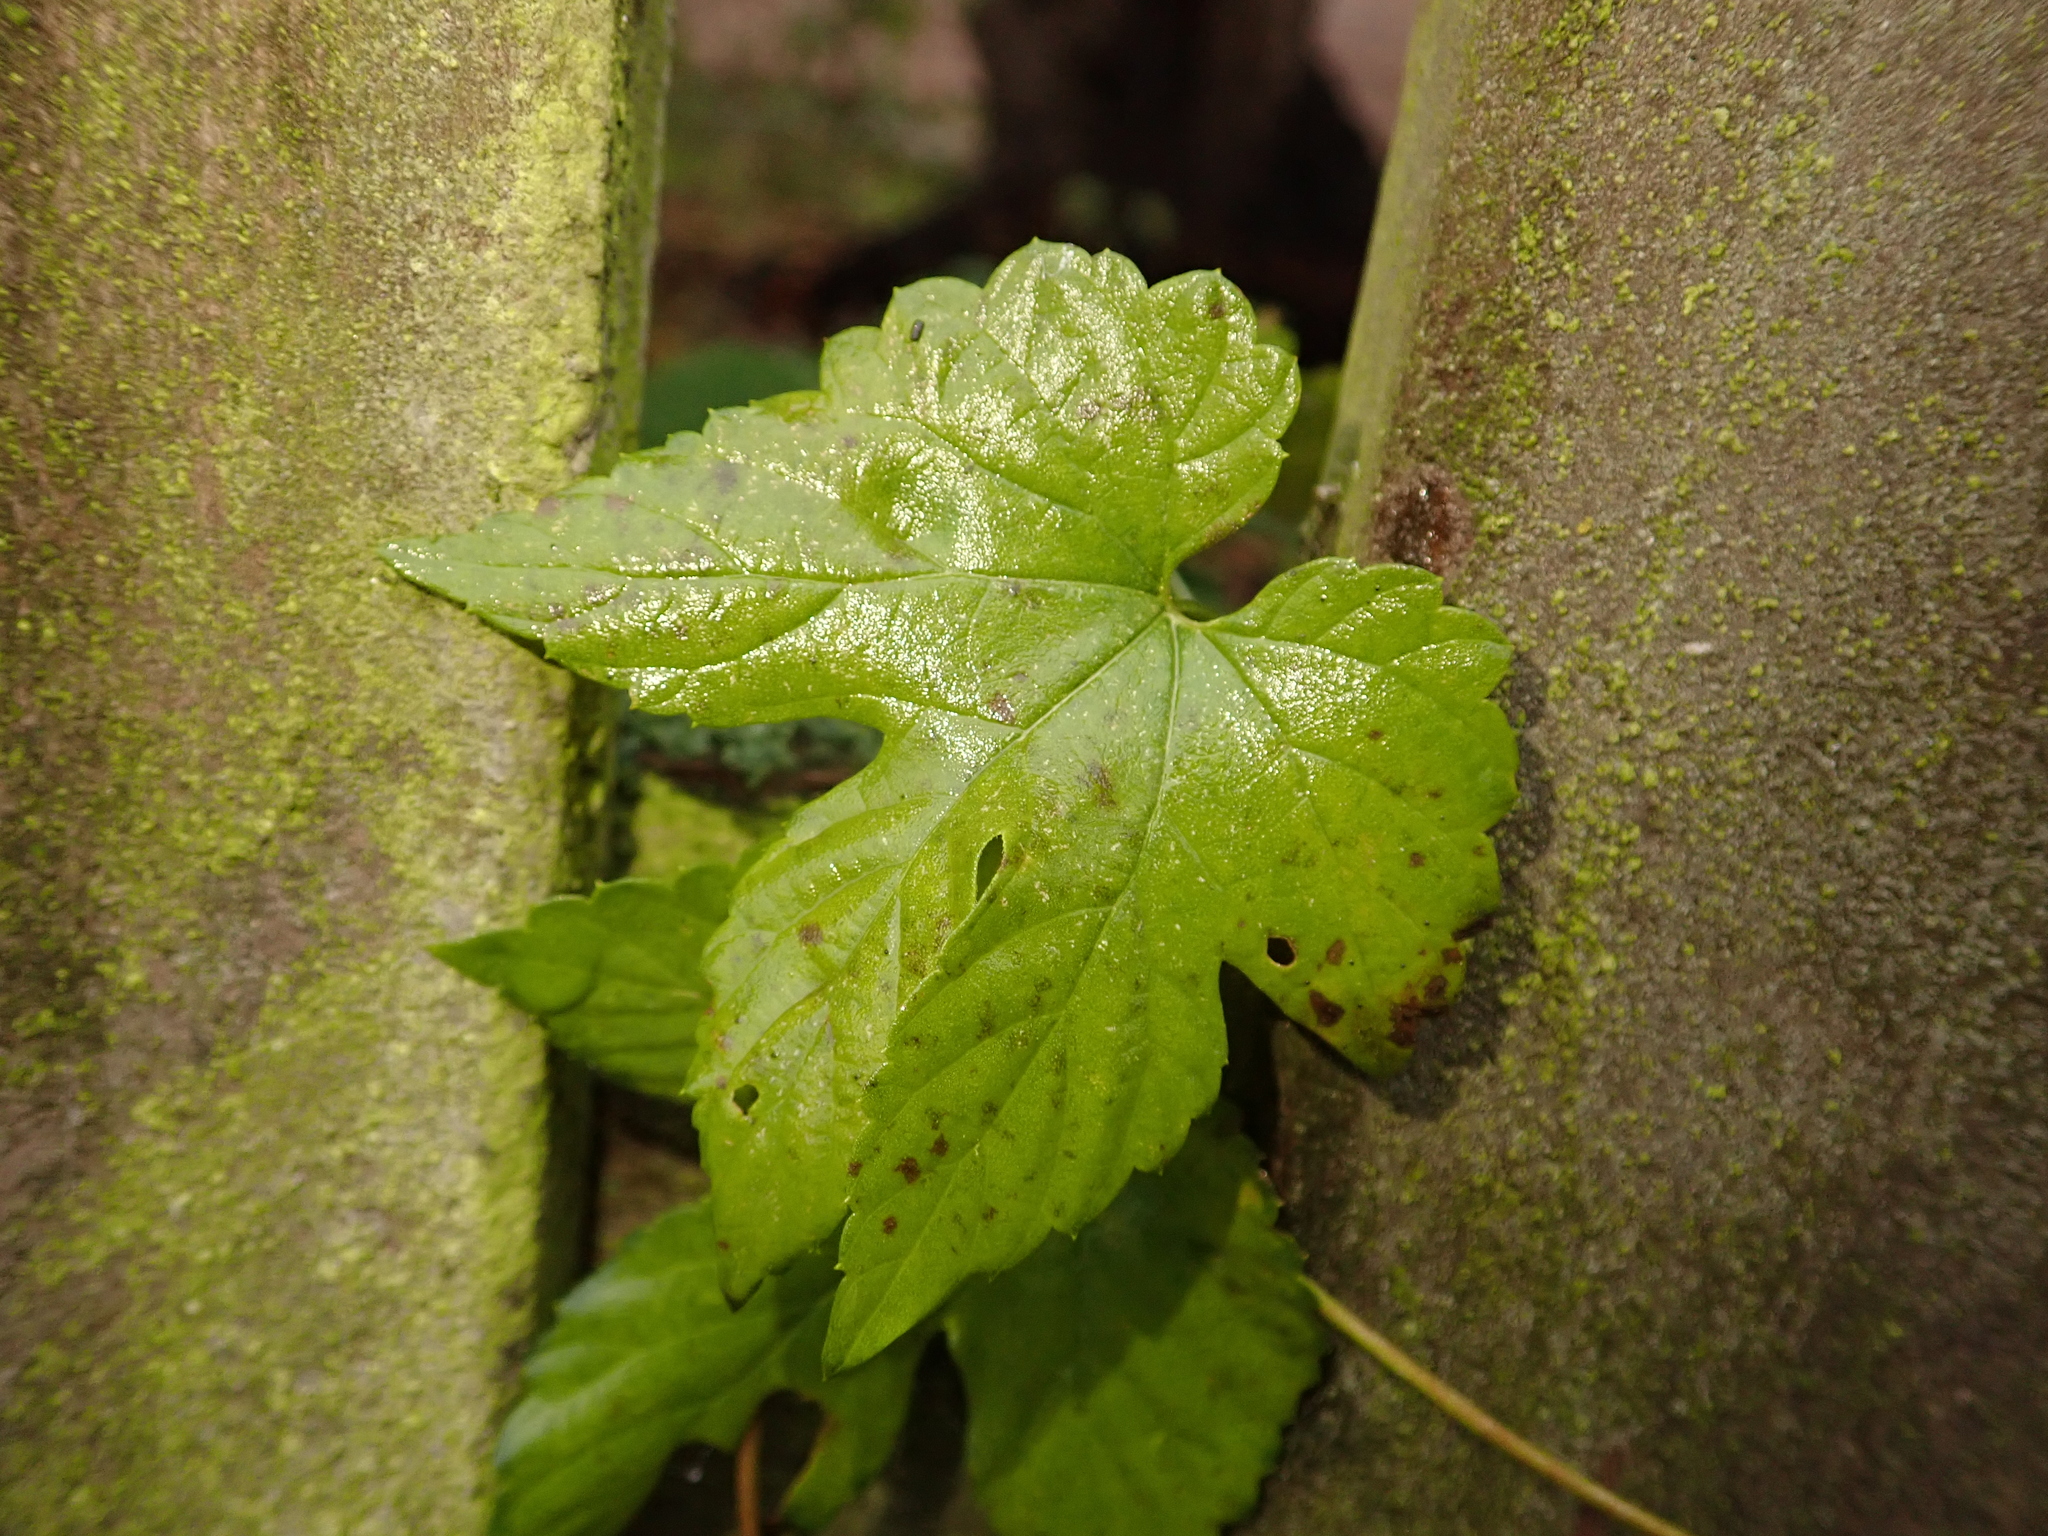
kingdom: Plantae
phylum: Tracheophyta
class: Magnoliopsida
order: Rosales
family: Cannabaceae
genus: Humulus
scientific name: Humulus lupulus
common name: Hop
